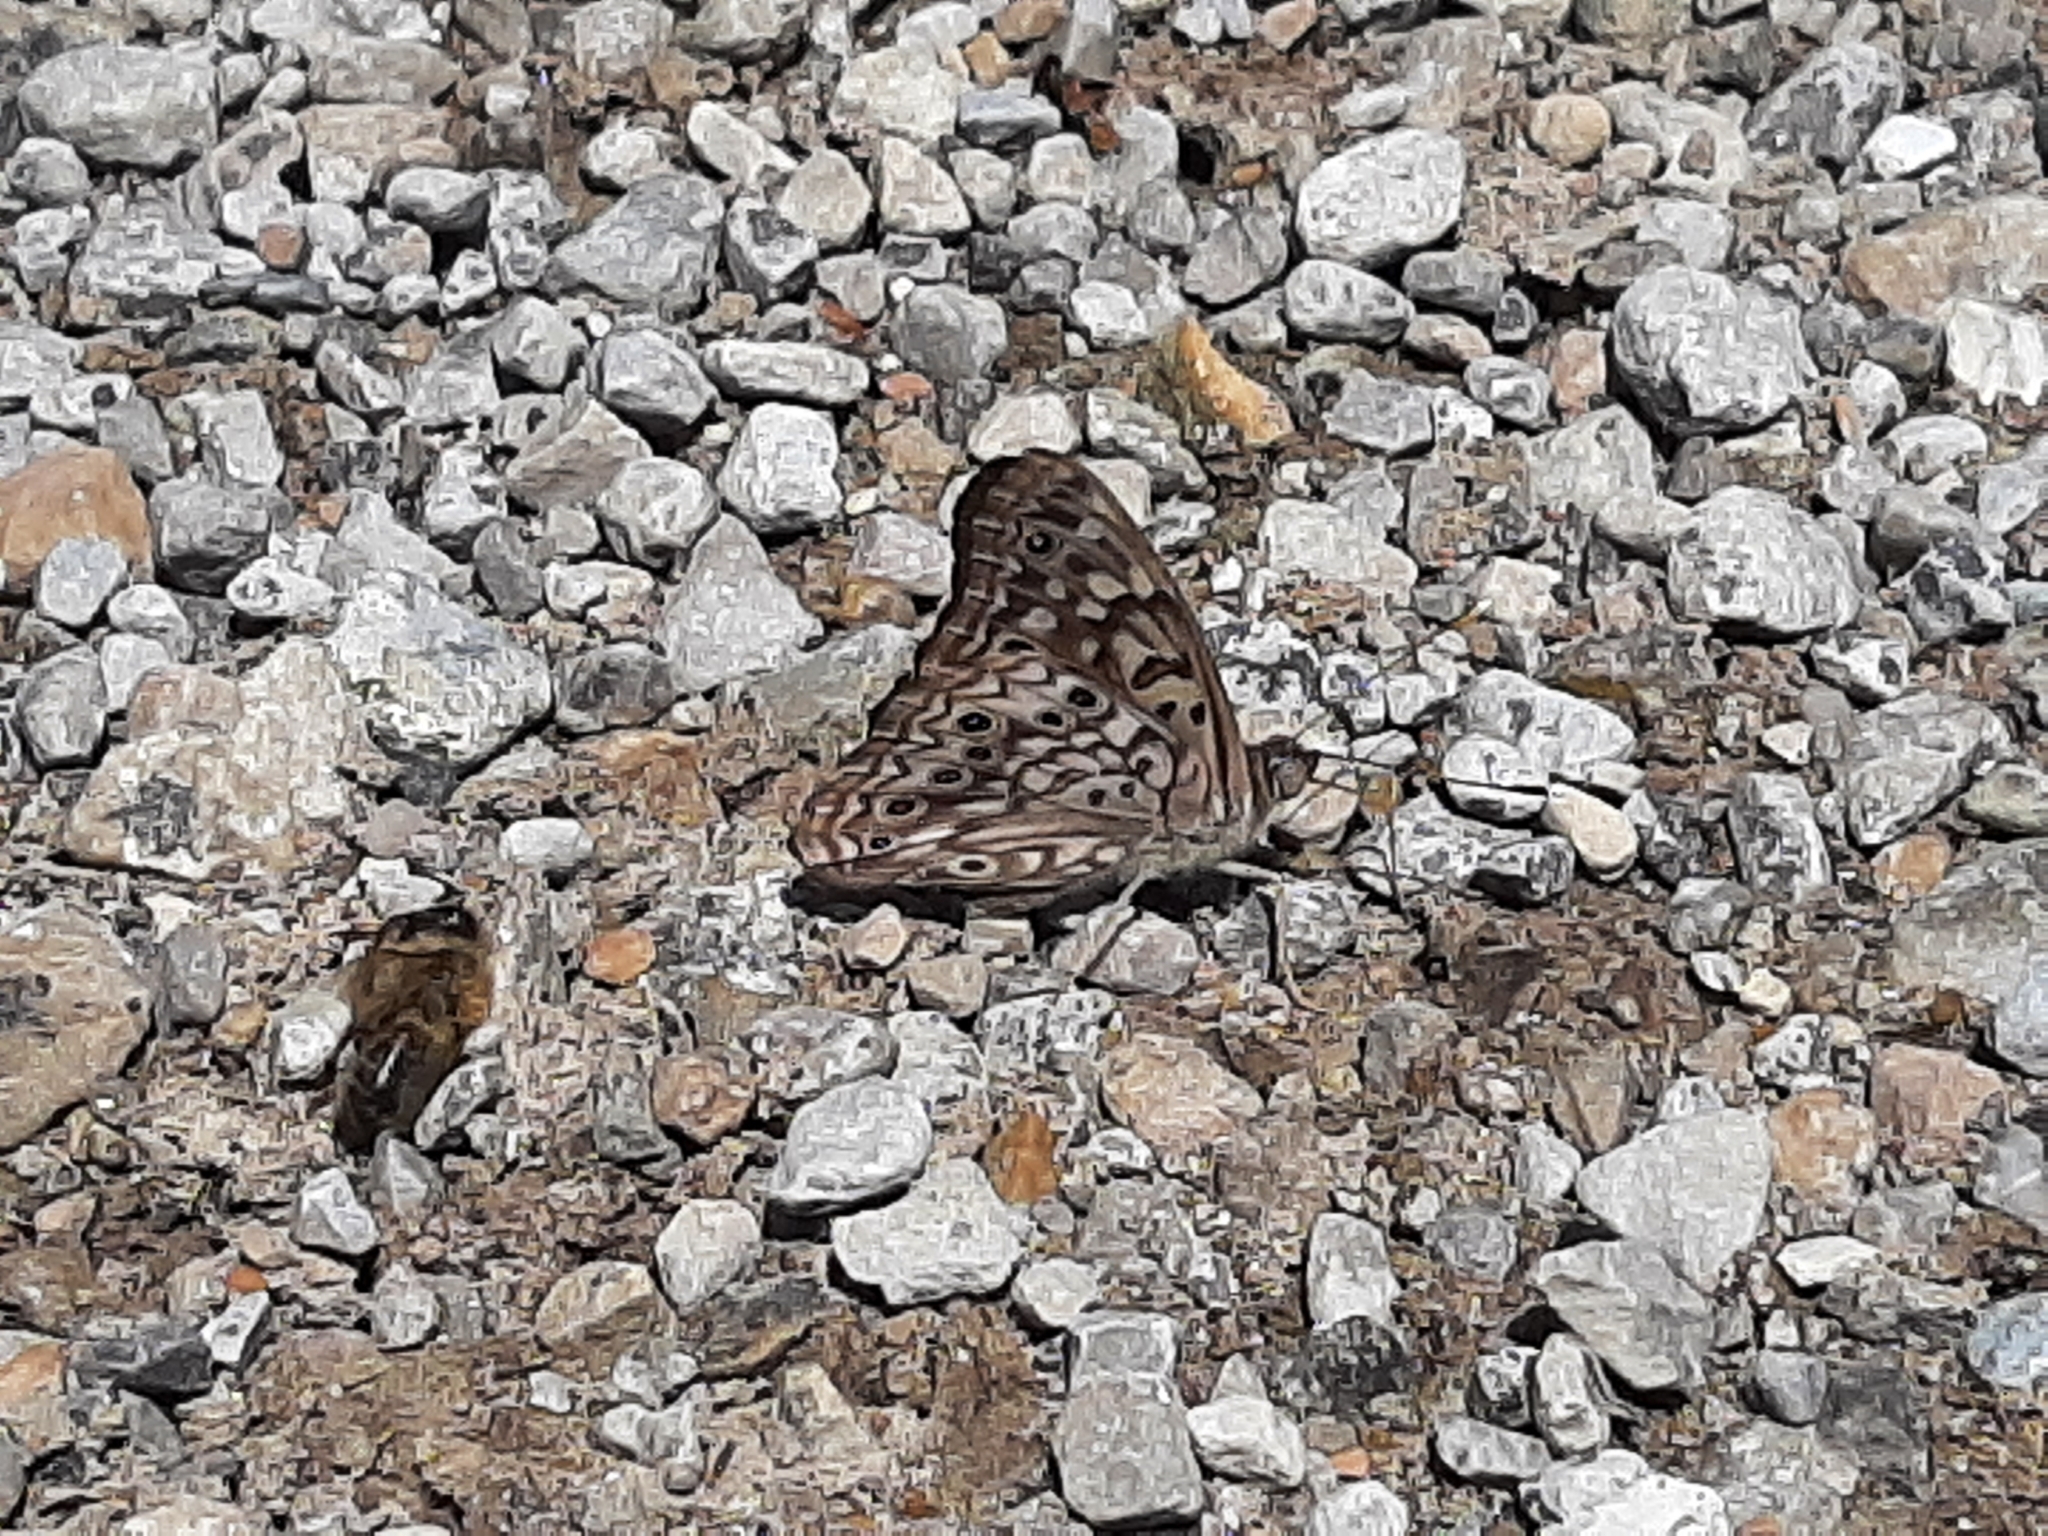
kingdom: Animalia
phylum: Arthropoda
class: Insecta
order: Lepidoptera
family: Nymphalidae
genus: Asterocampa
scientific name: Asterocampa celtis
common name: Hackberry emperor
